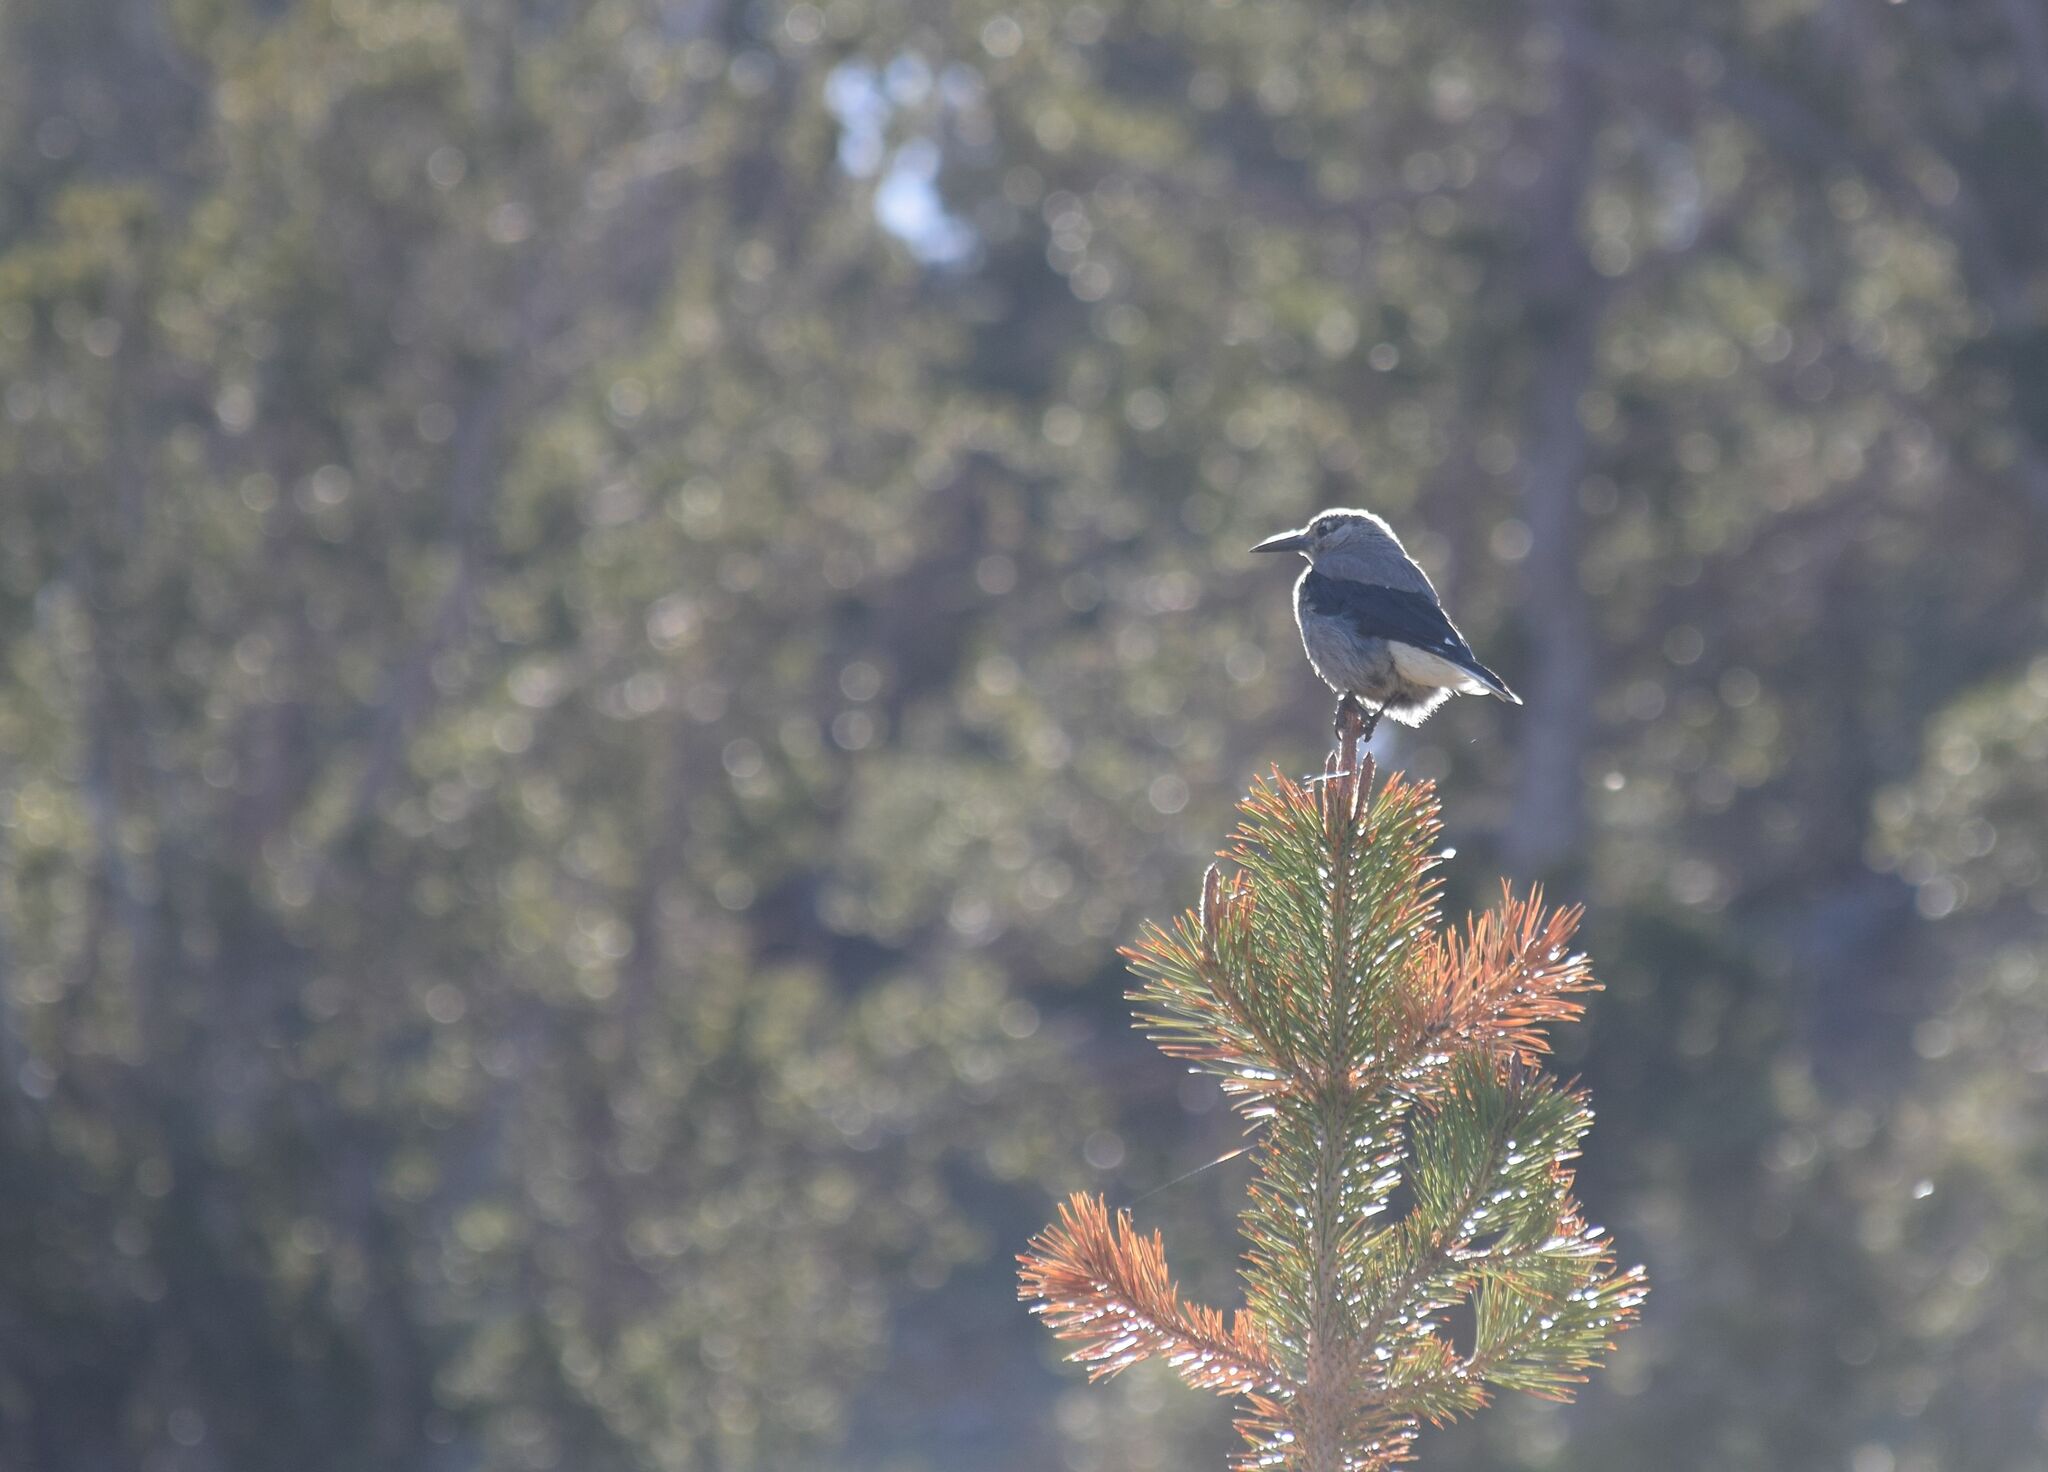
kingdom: Animalia
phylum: Chordata
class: Aves
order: Passeriformes
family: Corvidae
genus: Nucifraga
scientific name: Nucifraga columbiana
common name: Clark's nutcracker
